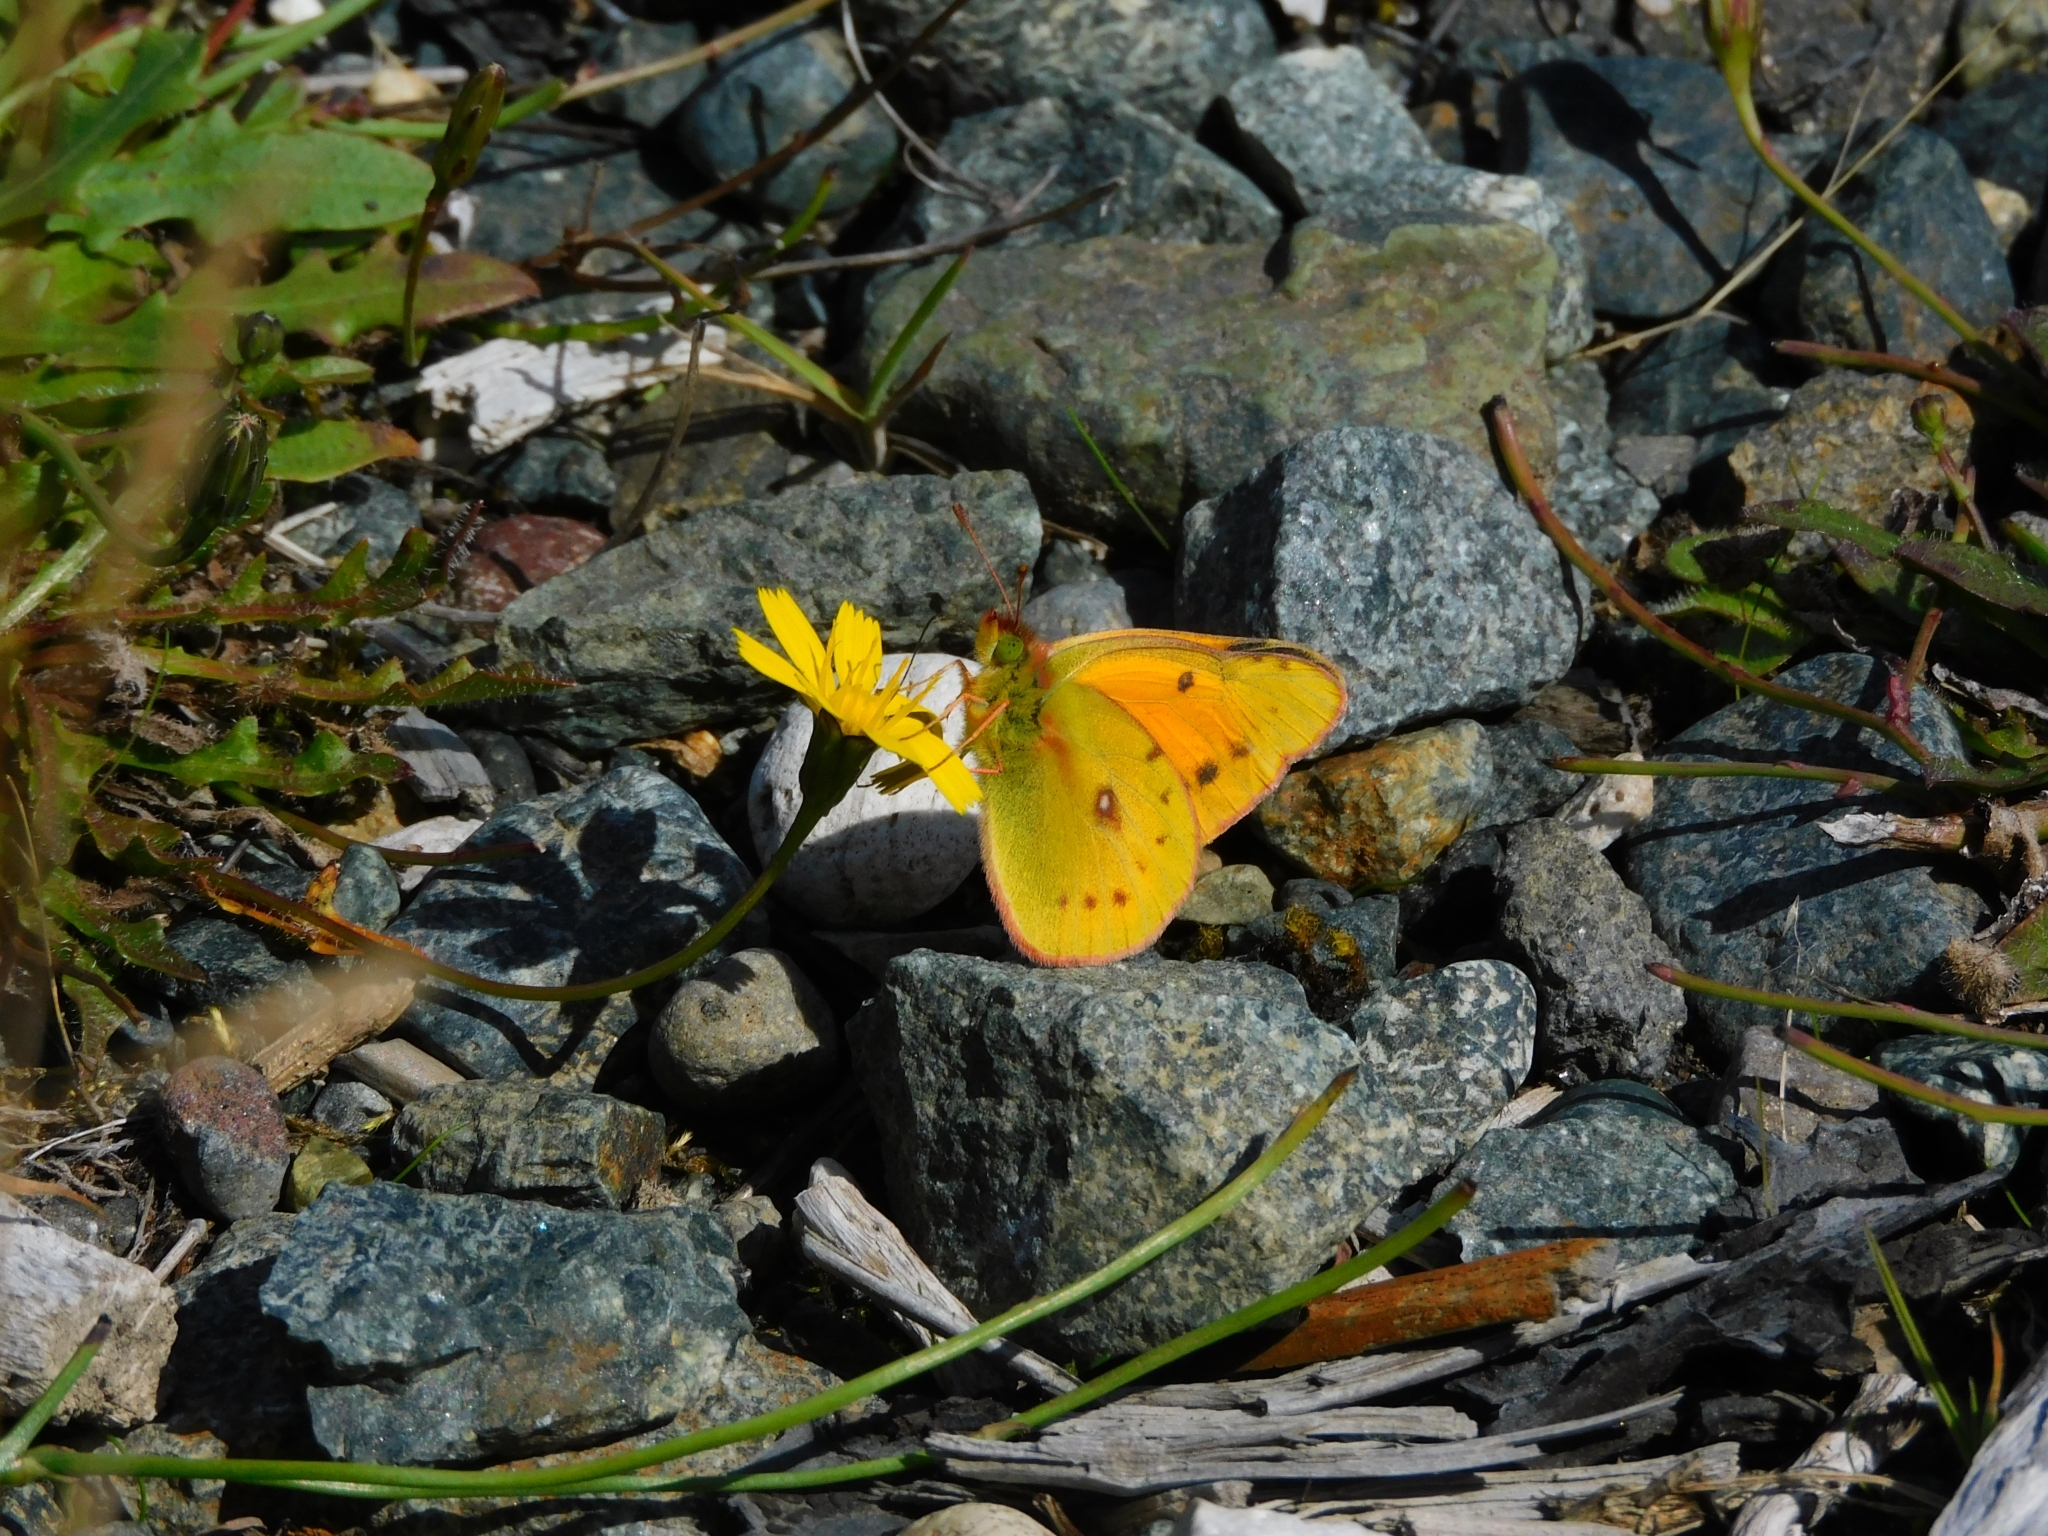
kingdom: Animalia
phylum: Arthropoda
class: Insecta
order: Lepidoptera
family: Pieridae
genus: Colias
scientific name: Colias vauthierii
